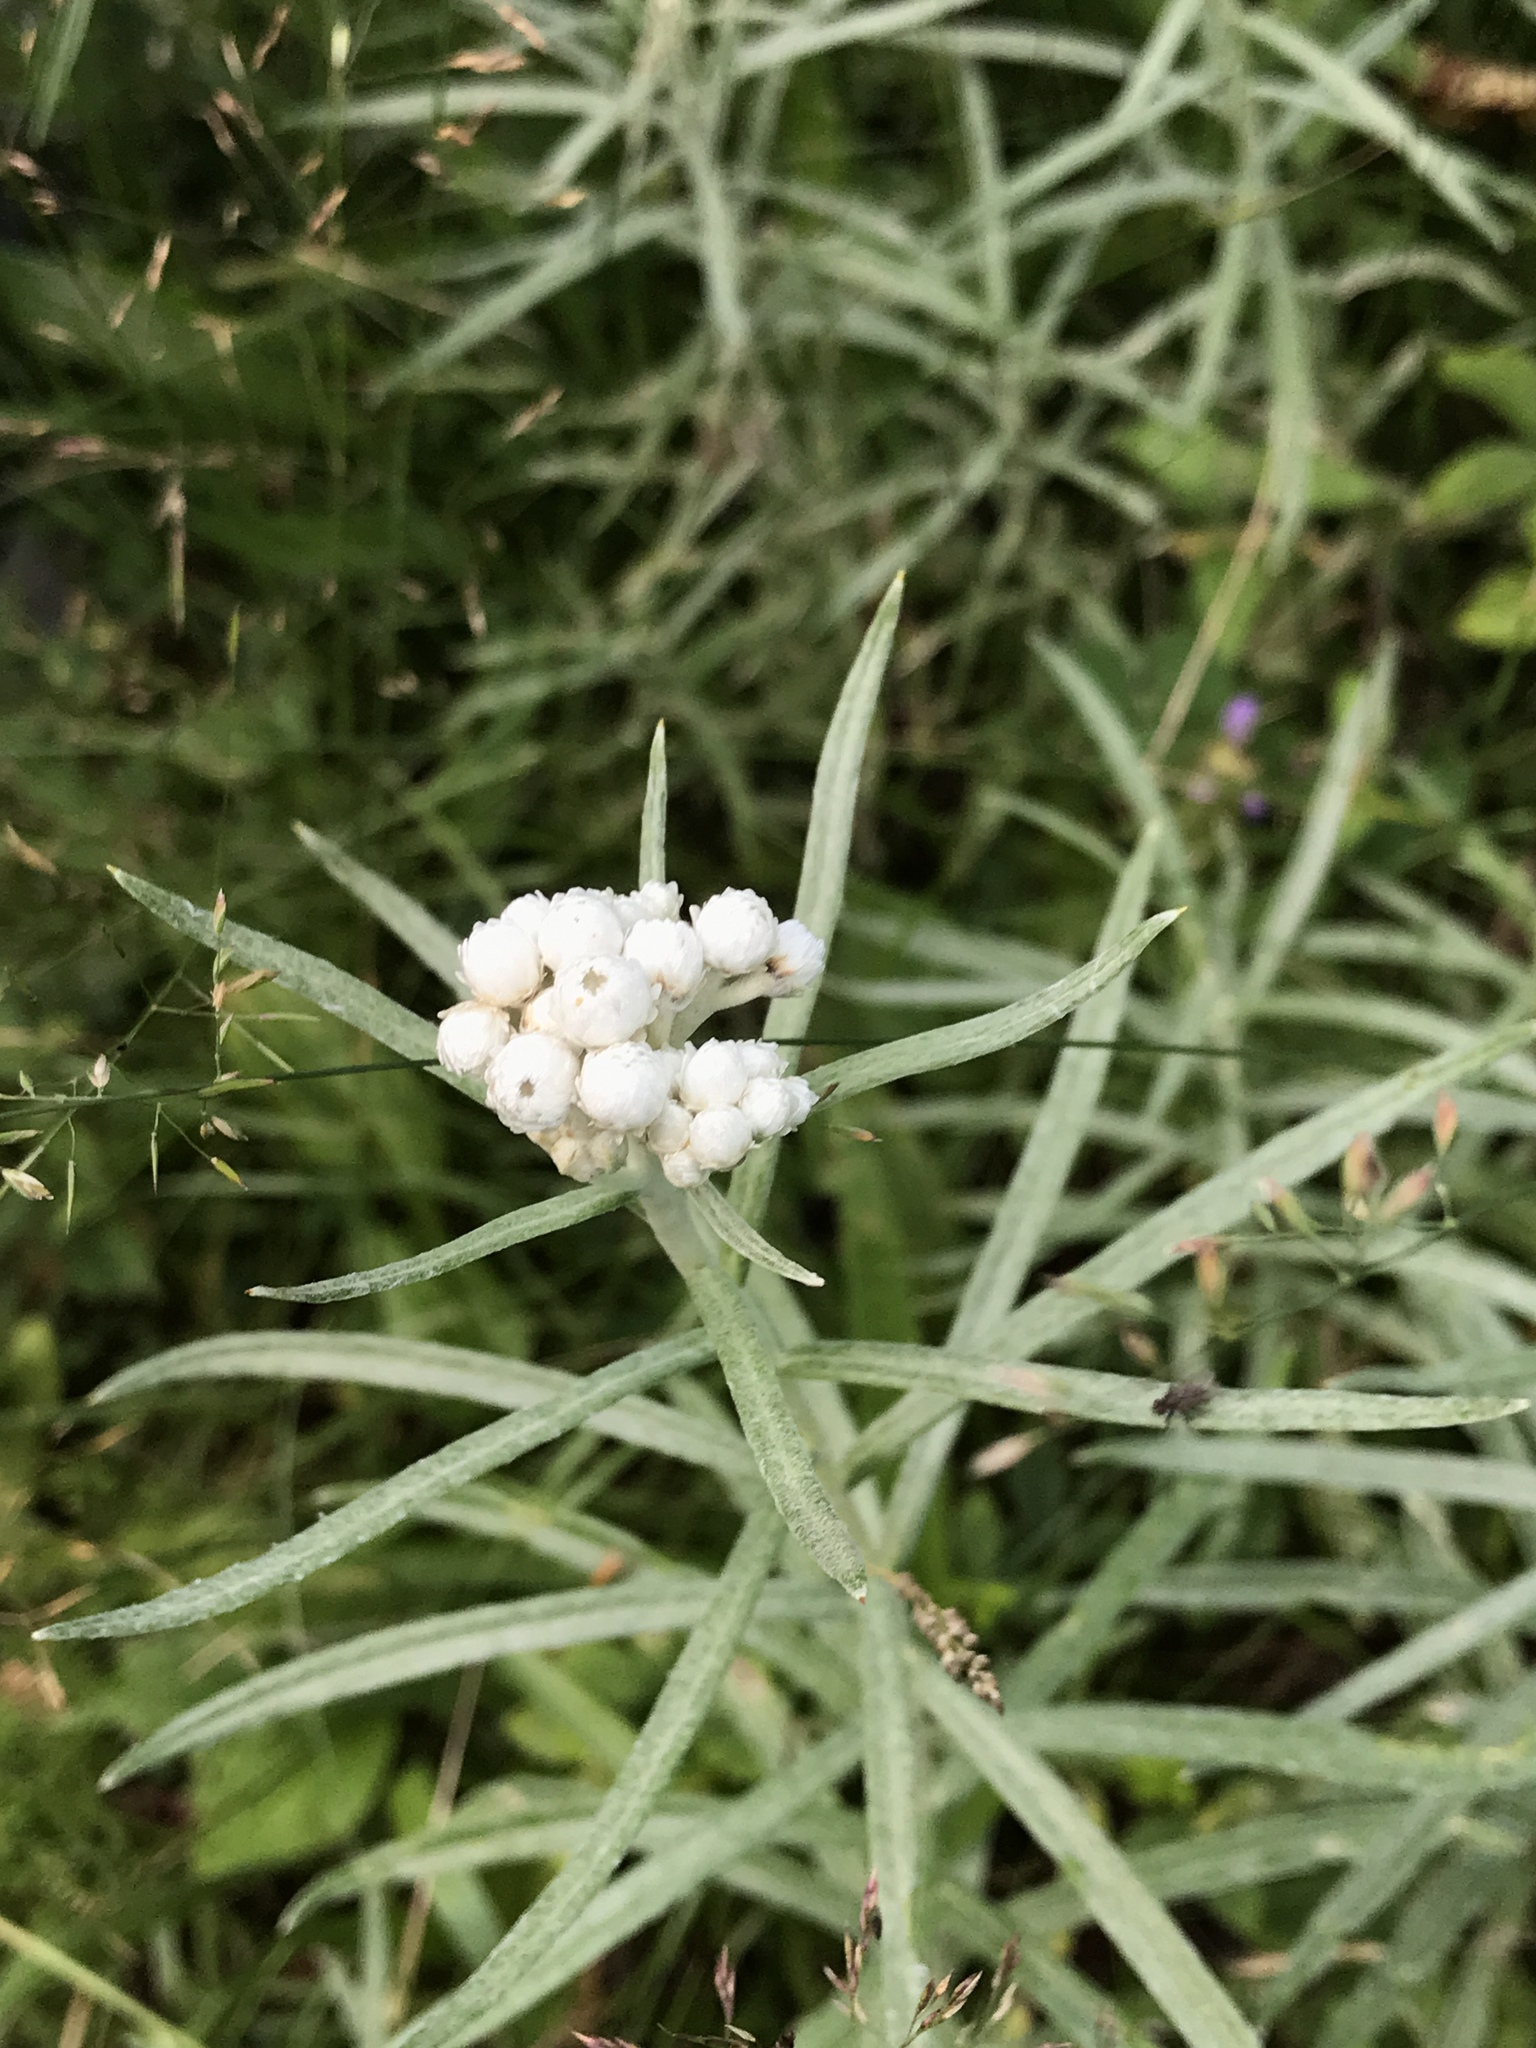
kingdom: Plantae
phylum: Tracheophyta
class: Magnoliopsida
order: Asterales
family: Asteraceae
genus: Anaphalis
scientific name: Anaphalis margaritacea
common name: Pearly everlasting
